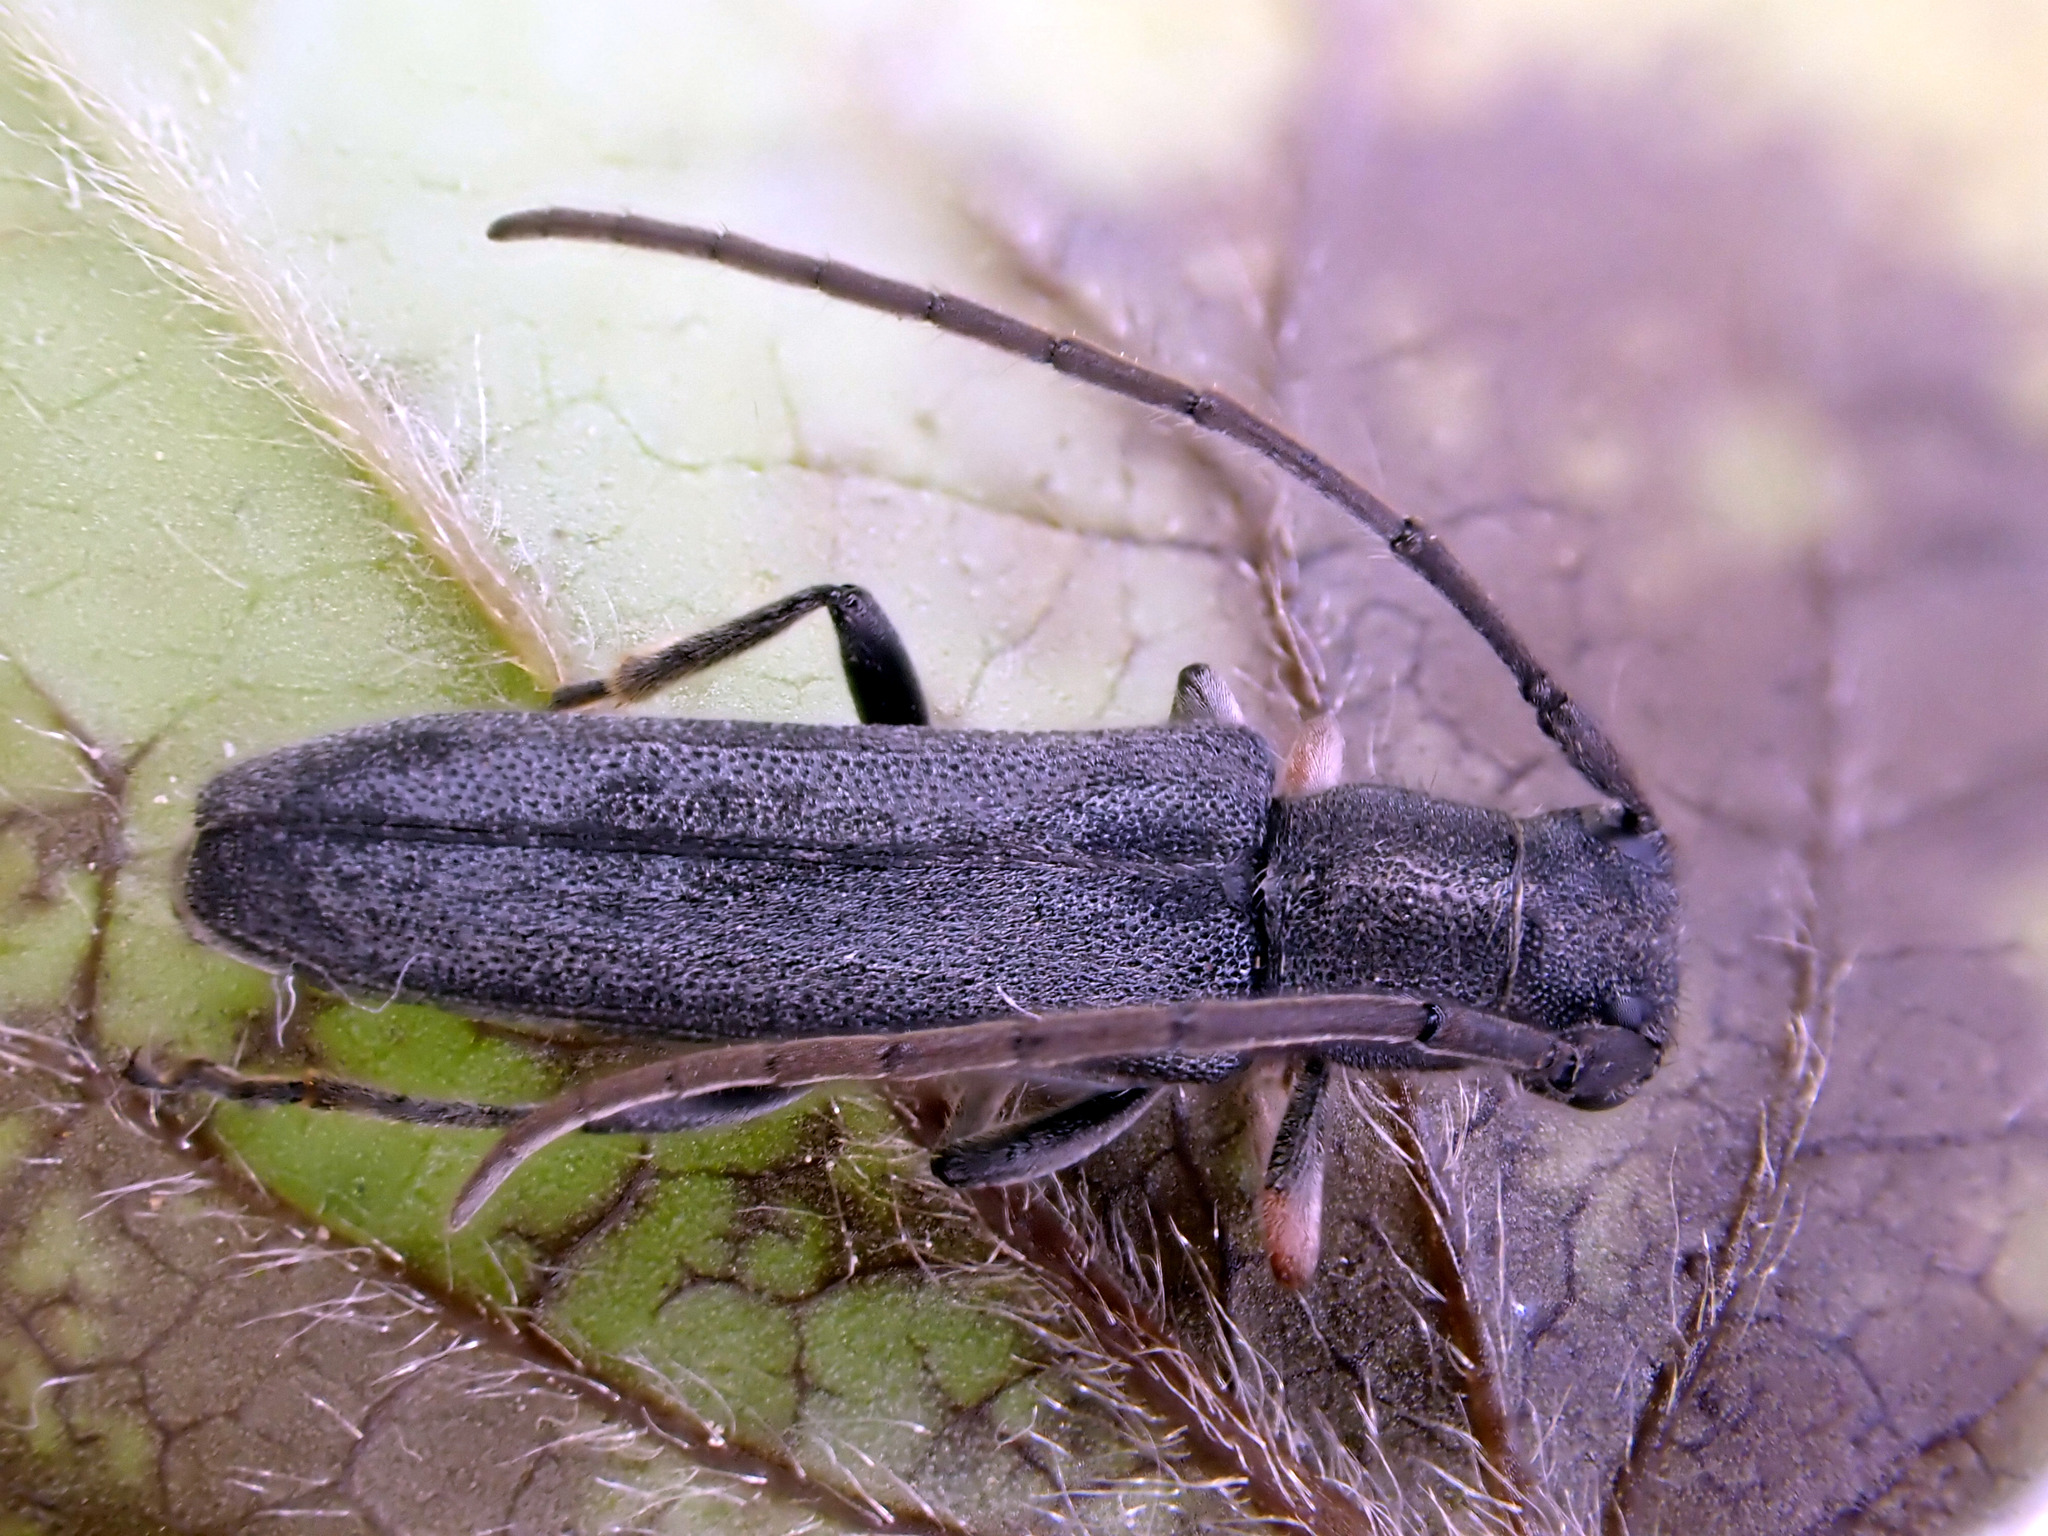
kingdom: Animalia
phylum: Arthropoda
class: Insecta
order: Coleoptera
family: Cerambycidae
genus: Phytoecia
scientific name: Phytoecia cylindrica
